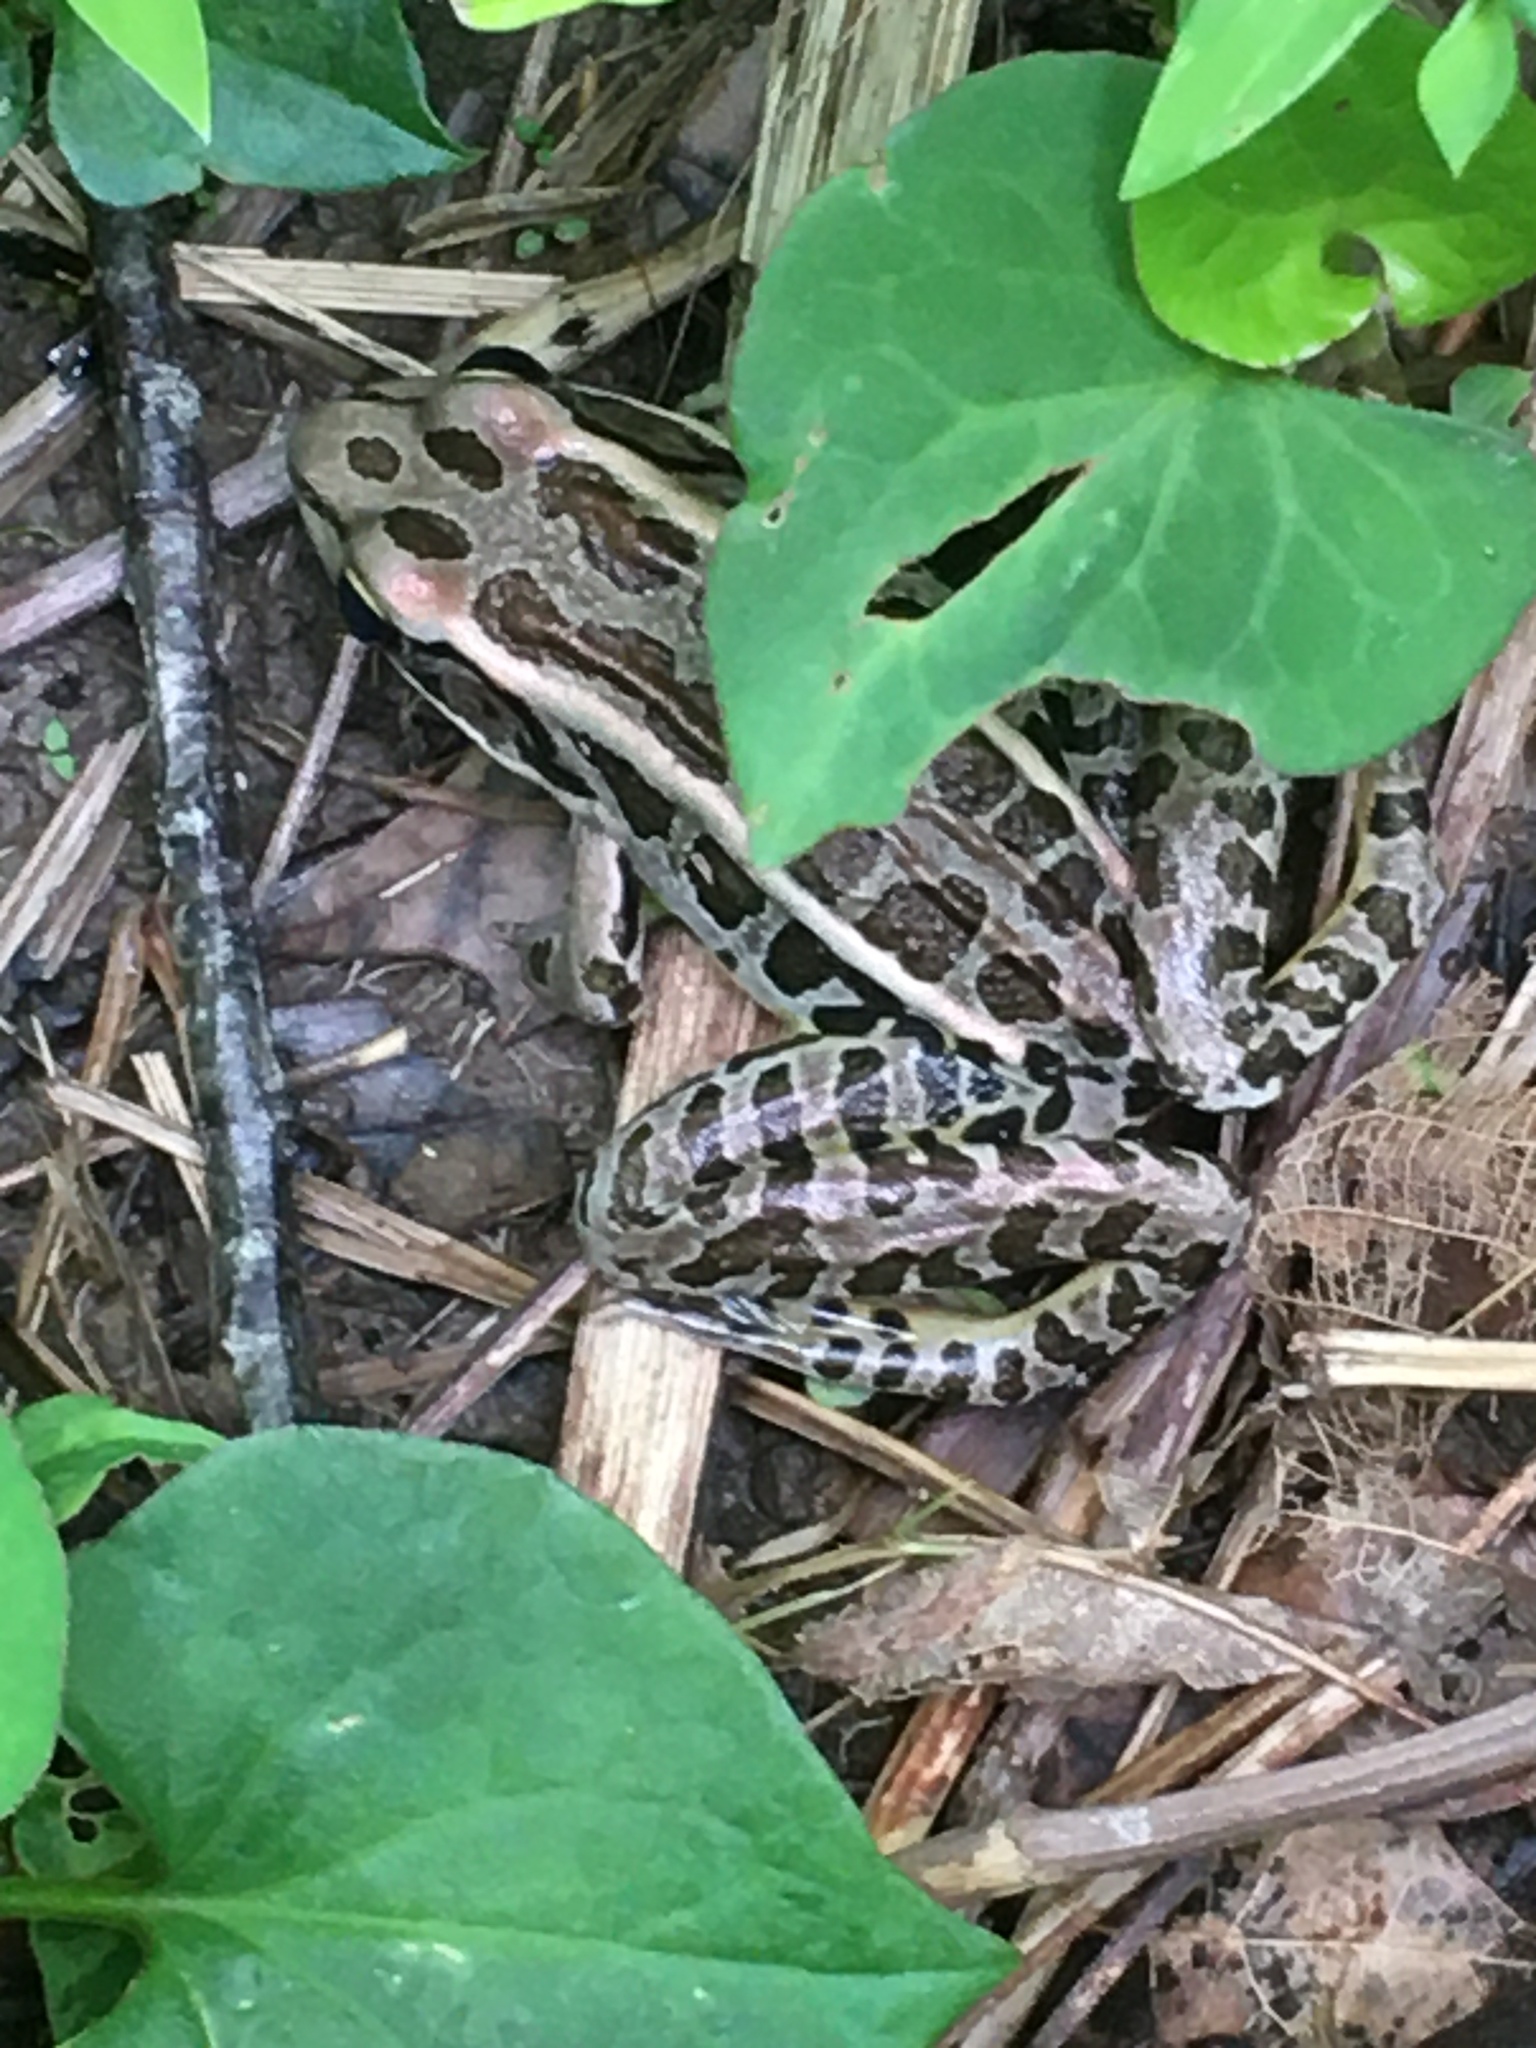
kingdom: Animalia
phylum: Chordata
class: Amphibia
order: Anura
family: Ranidae
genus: Lithobates
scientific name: Lithobates palustris
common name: Pickerel frog
